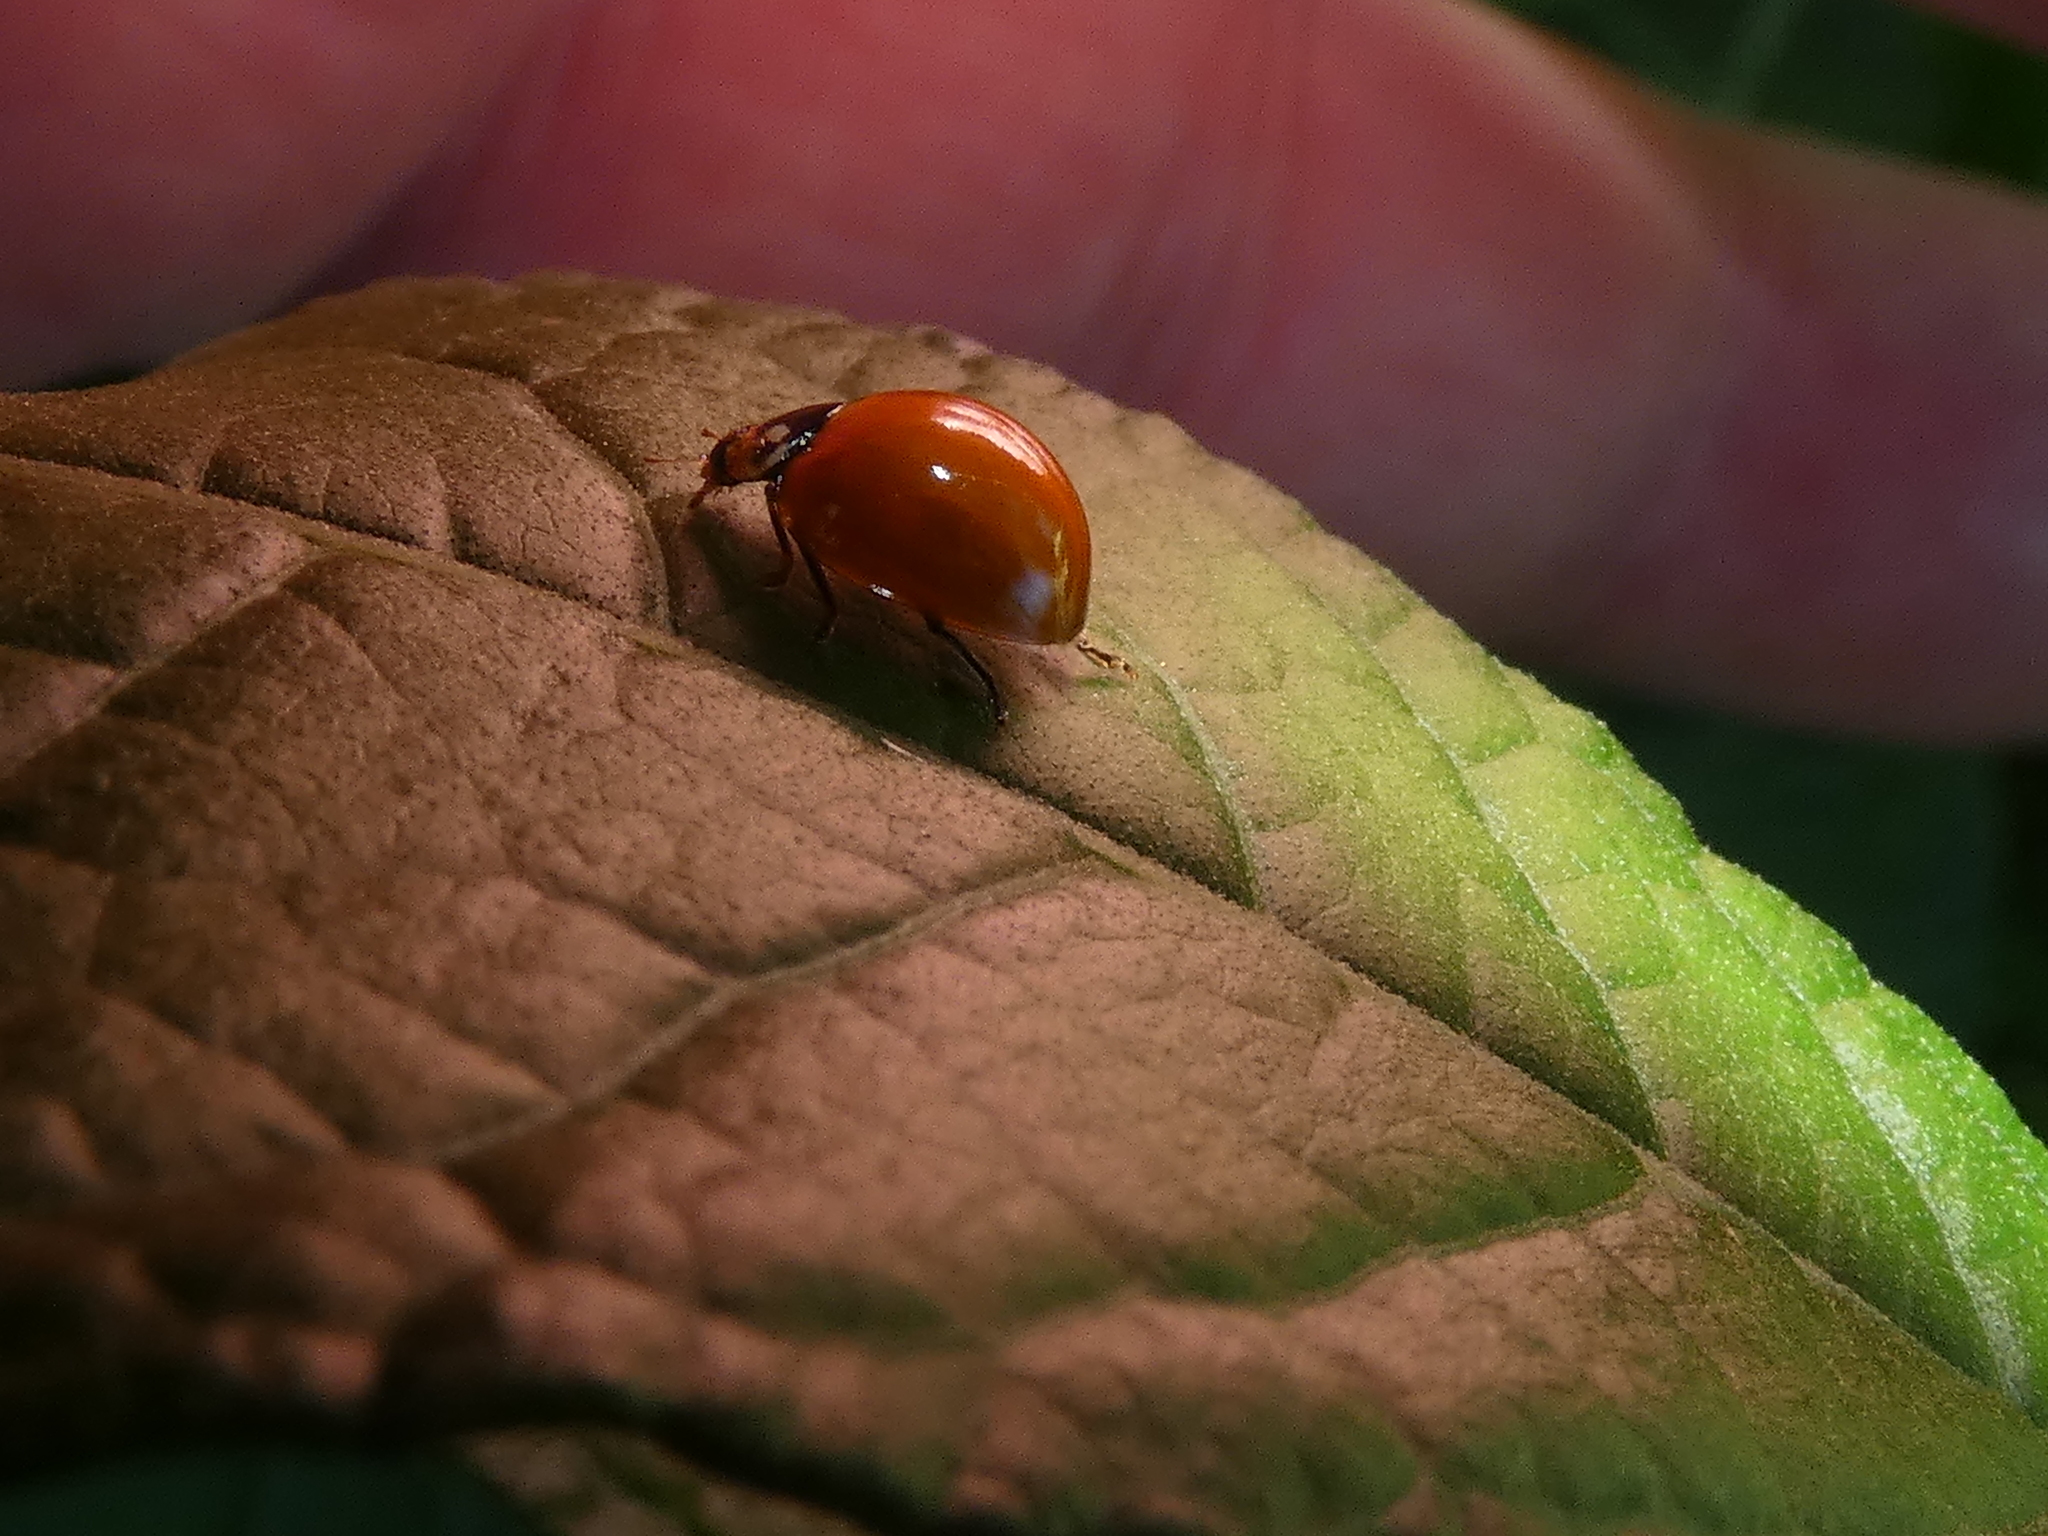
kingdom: Animalia
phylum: Arthropoda
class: Insecta
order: Coleoptera
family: Coccinellidae
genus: Cycloneda
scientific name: Cycloneda sanguinea
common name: Ladybird beetle
